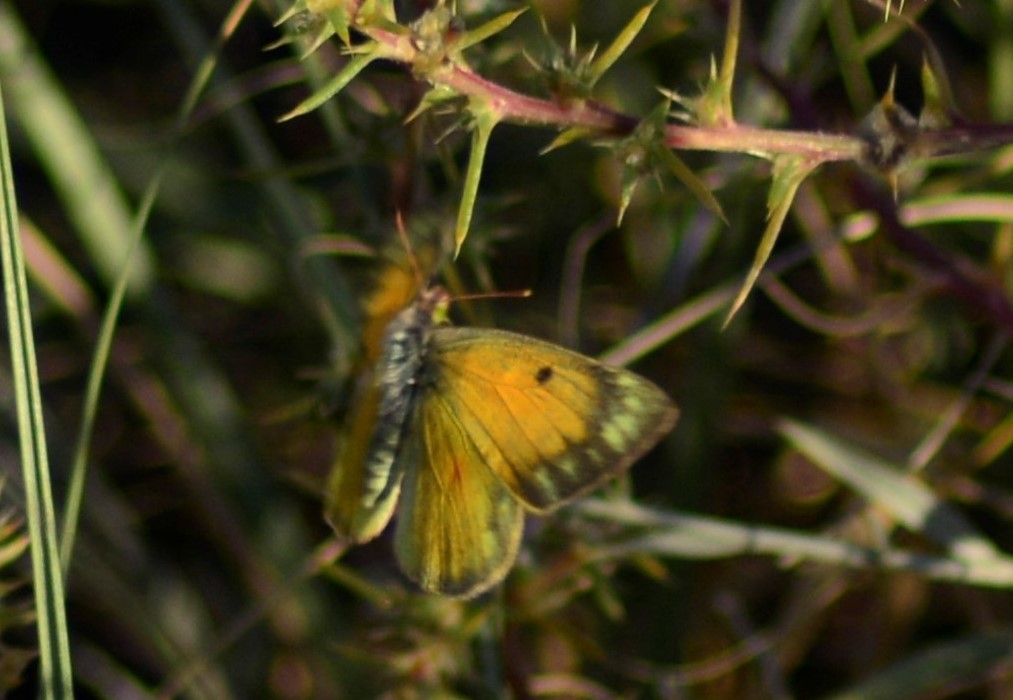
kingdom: Animalia
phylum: Arthropoda
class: Insecta
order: Lepidoptera
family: Pieridae
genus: Colias
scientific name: Colias lesbia
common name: Lesbia clouded yellow
